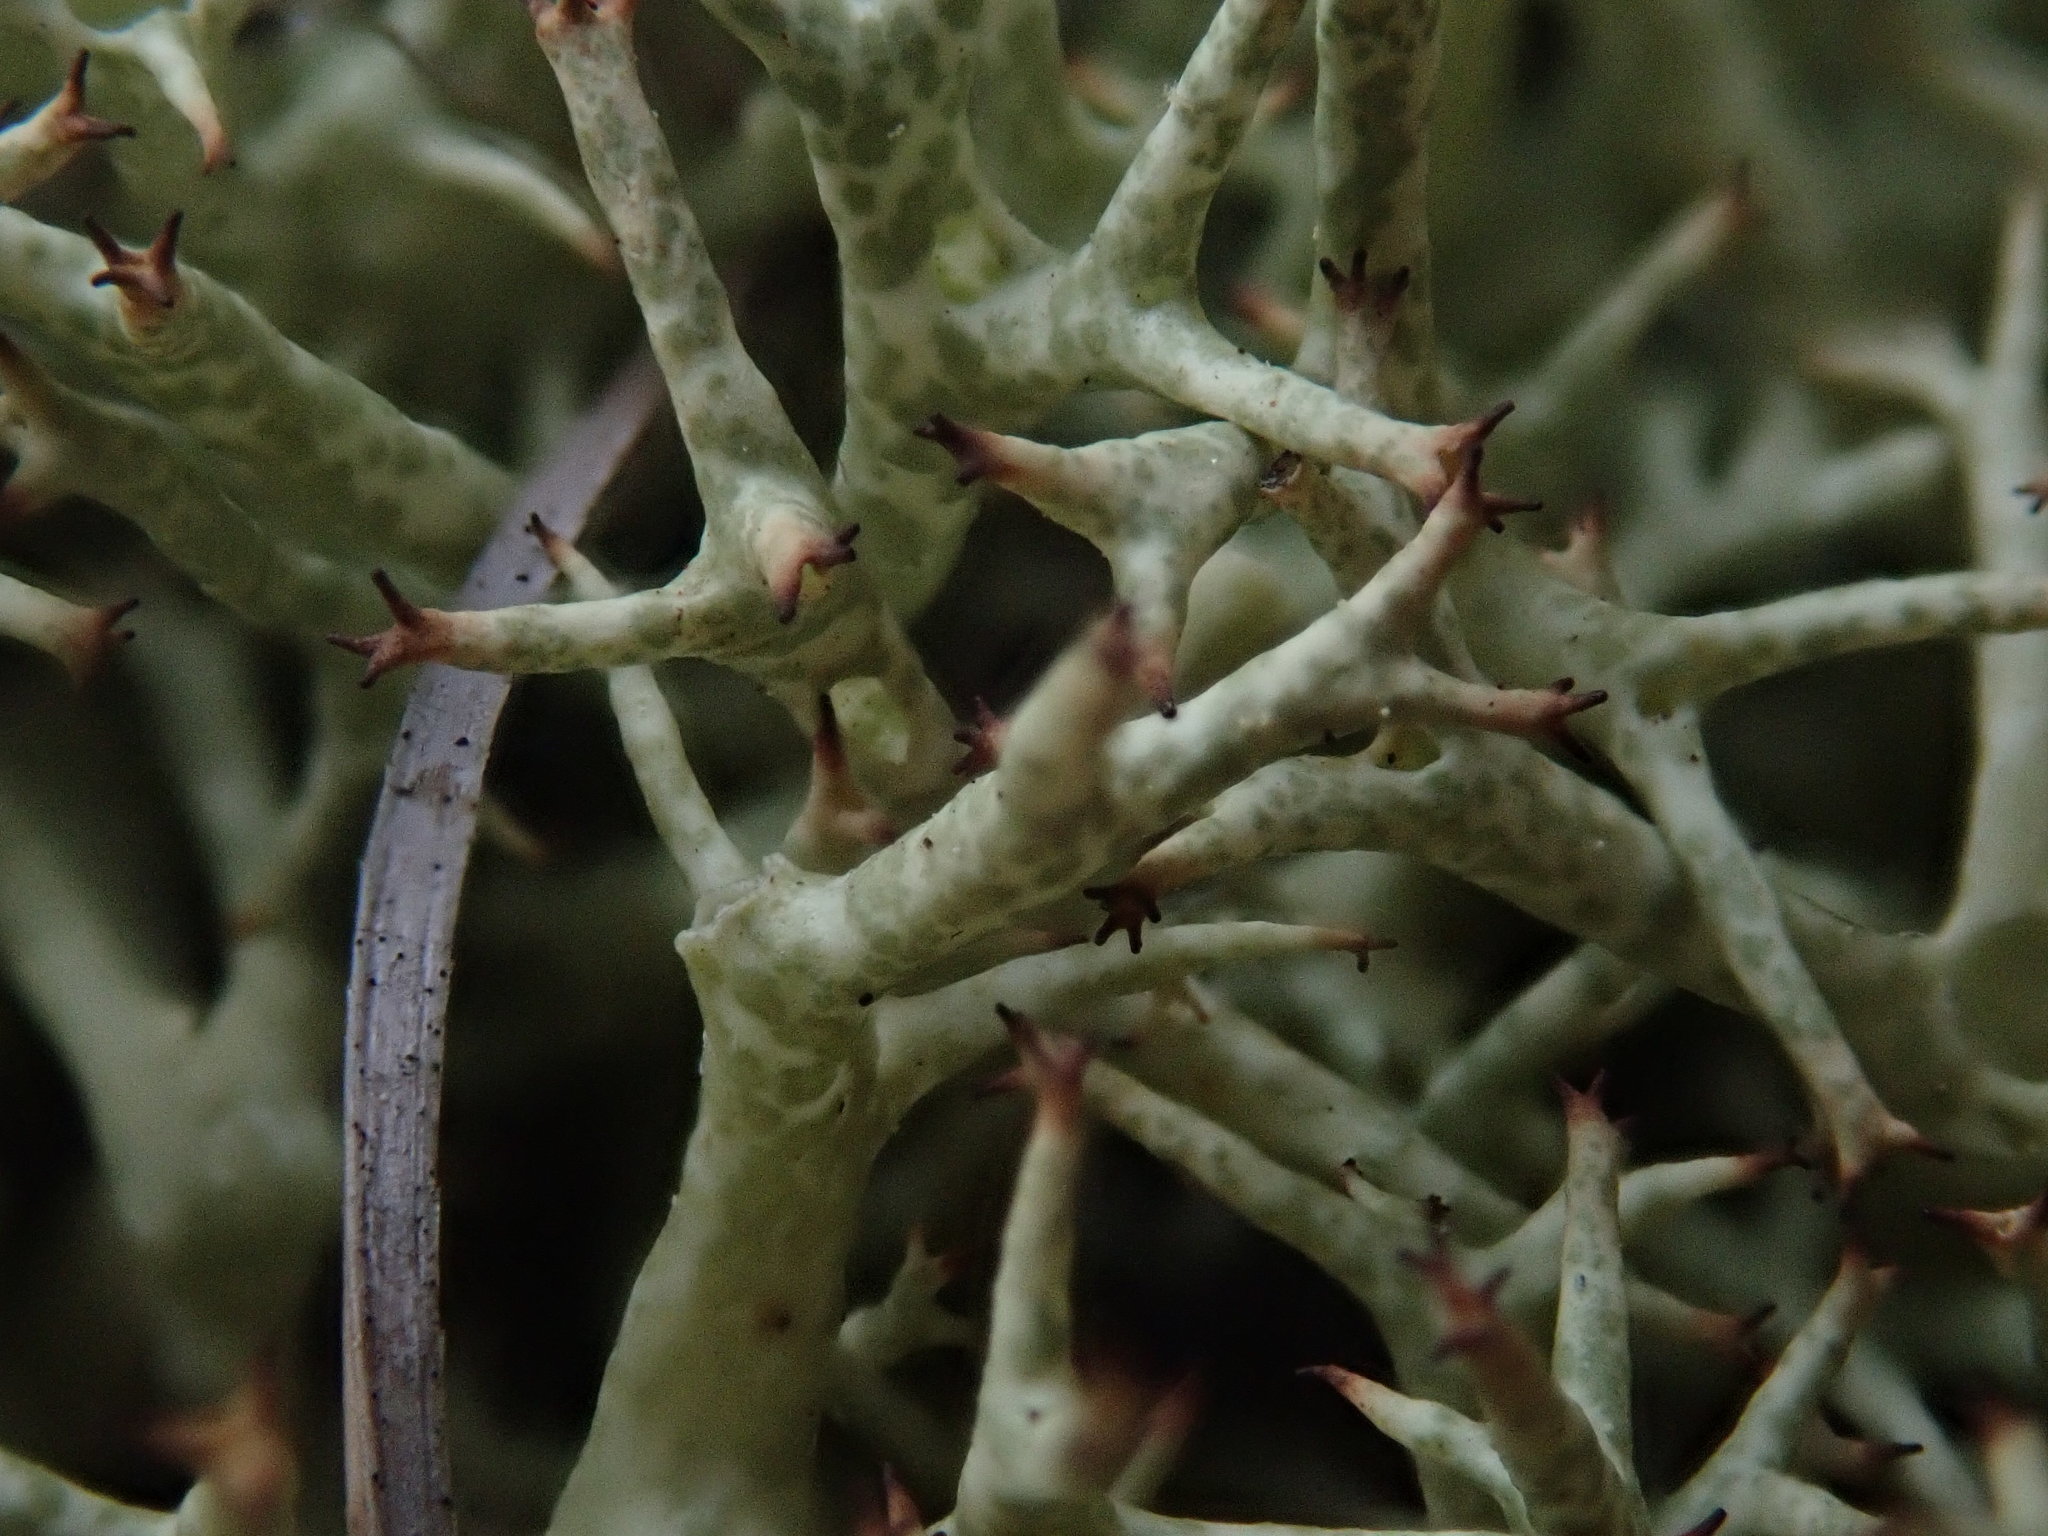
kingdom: Fungi
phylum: Ascomycota
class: Lecanoromycetes
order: Lecanorales
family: Cladoniaceae
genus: Cladonia
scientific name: Cladonia uncialis
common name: Thorn lichen
